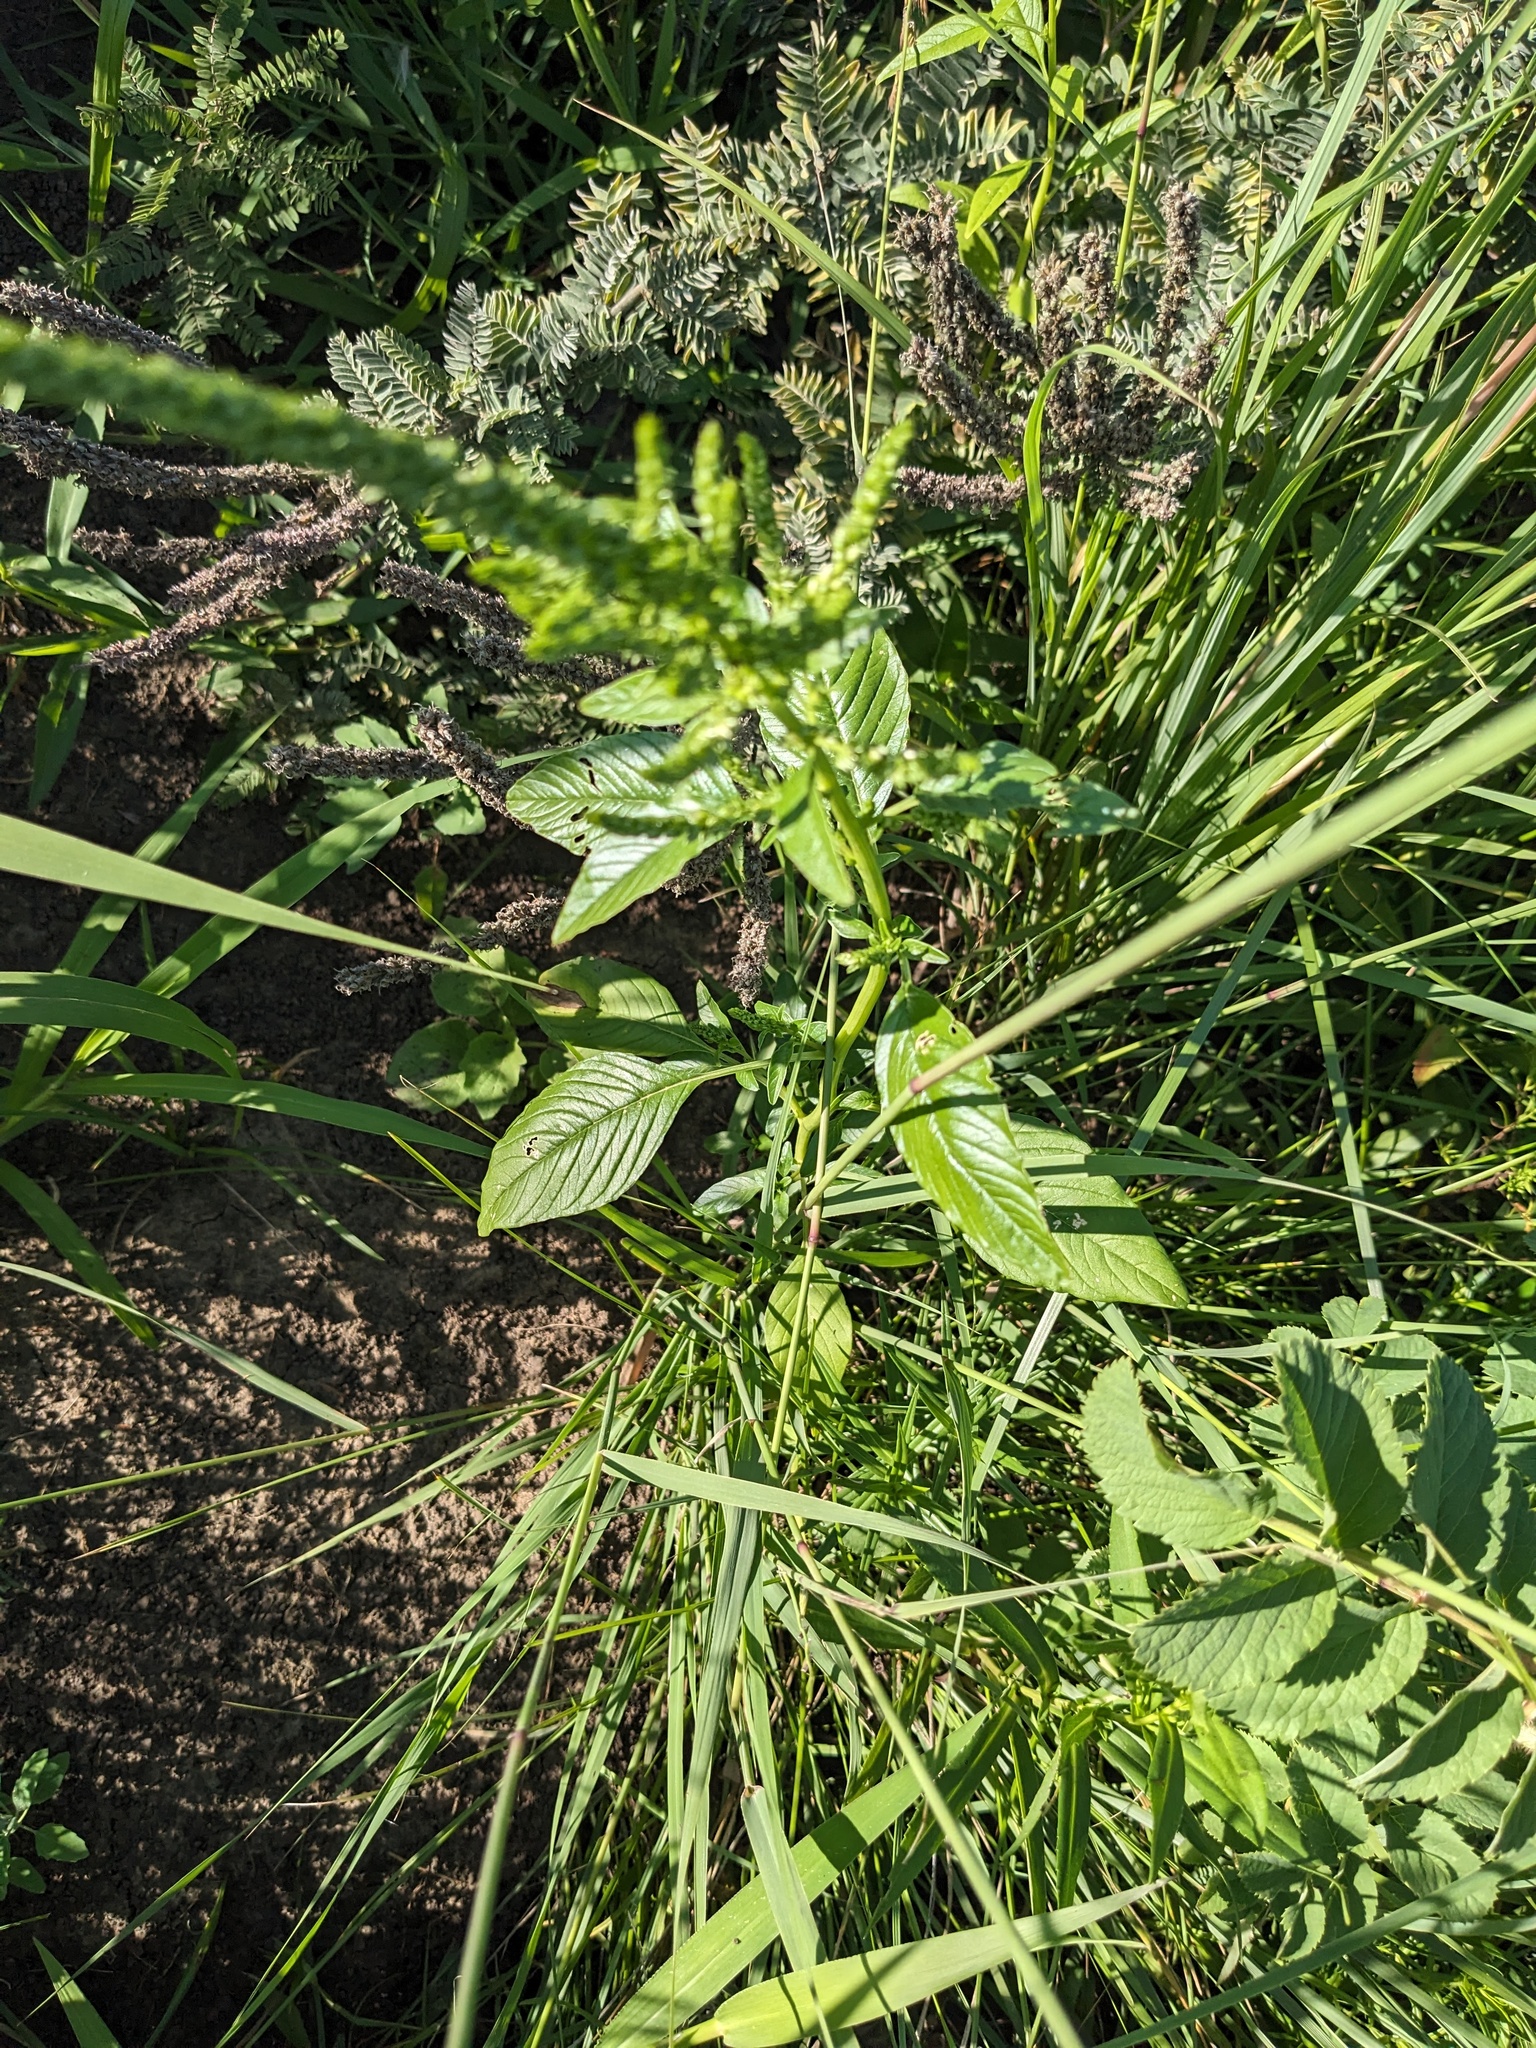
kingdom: Plantae
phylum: Tracheophyta
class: Magnoliopsida
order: Caryophyllales
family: Amaranthaceae
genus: Amaranthus
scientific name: Amaranthus tuberculatus
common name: Rough-fruit amaranth
